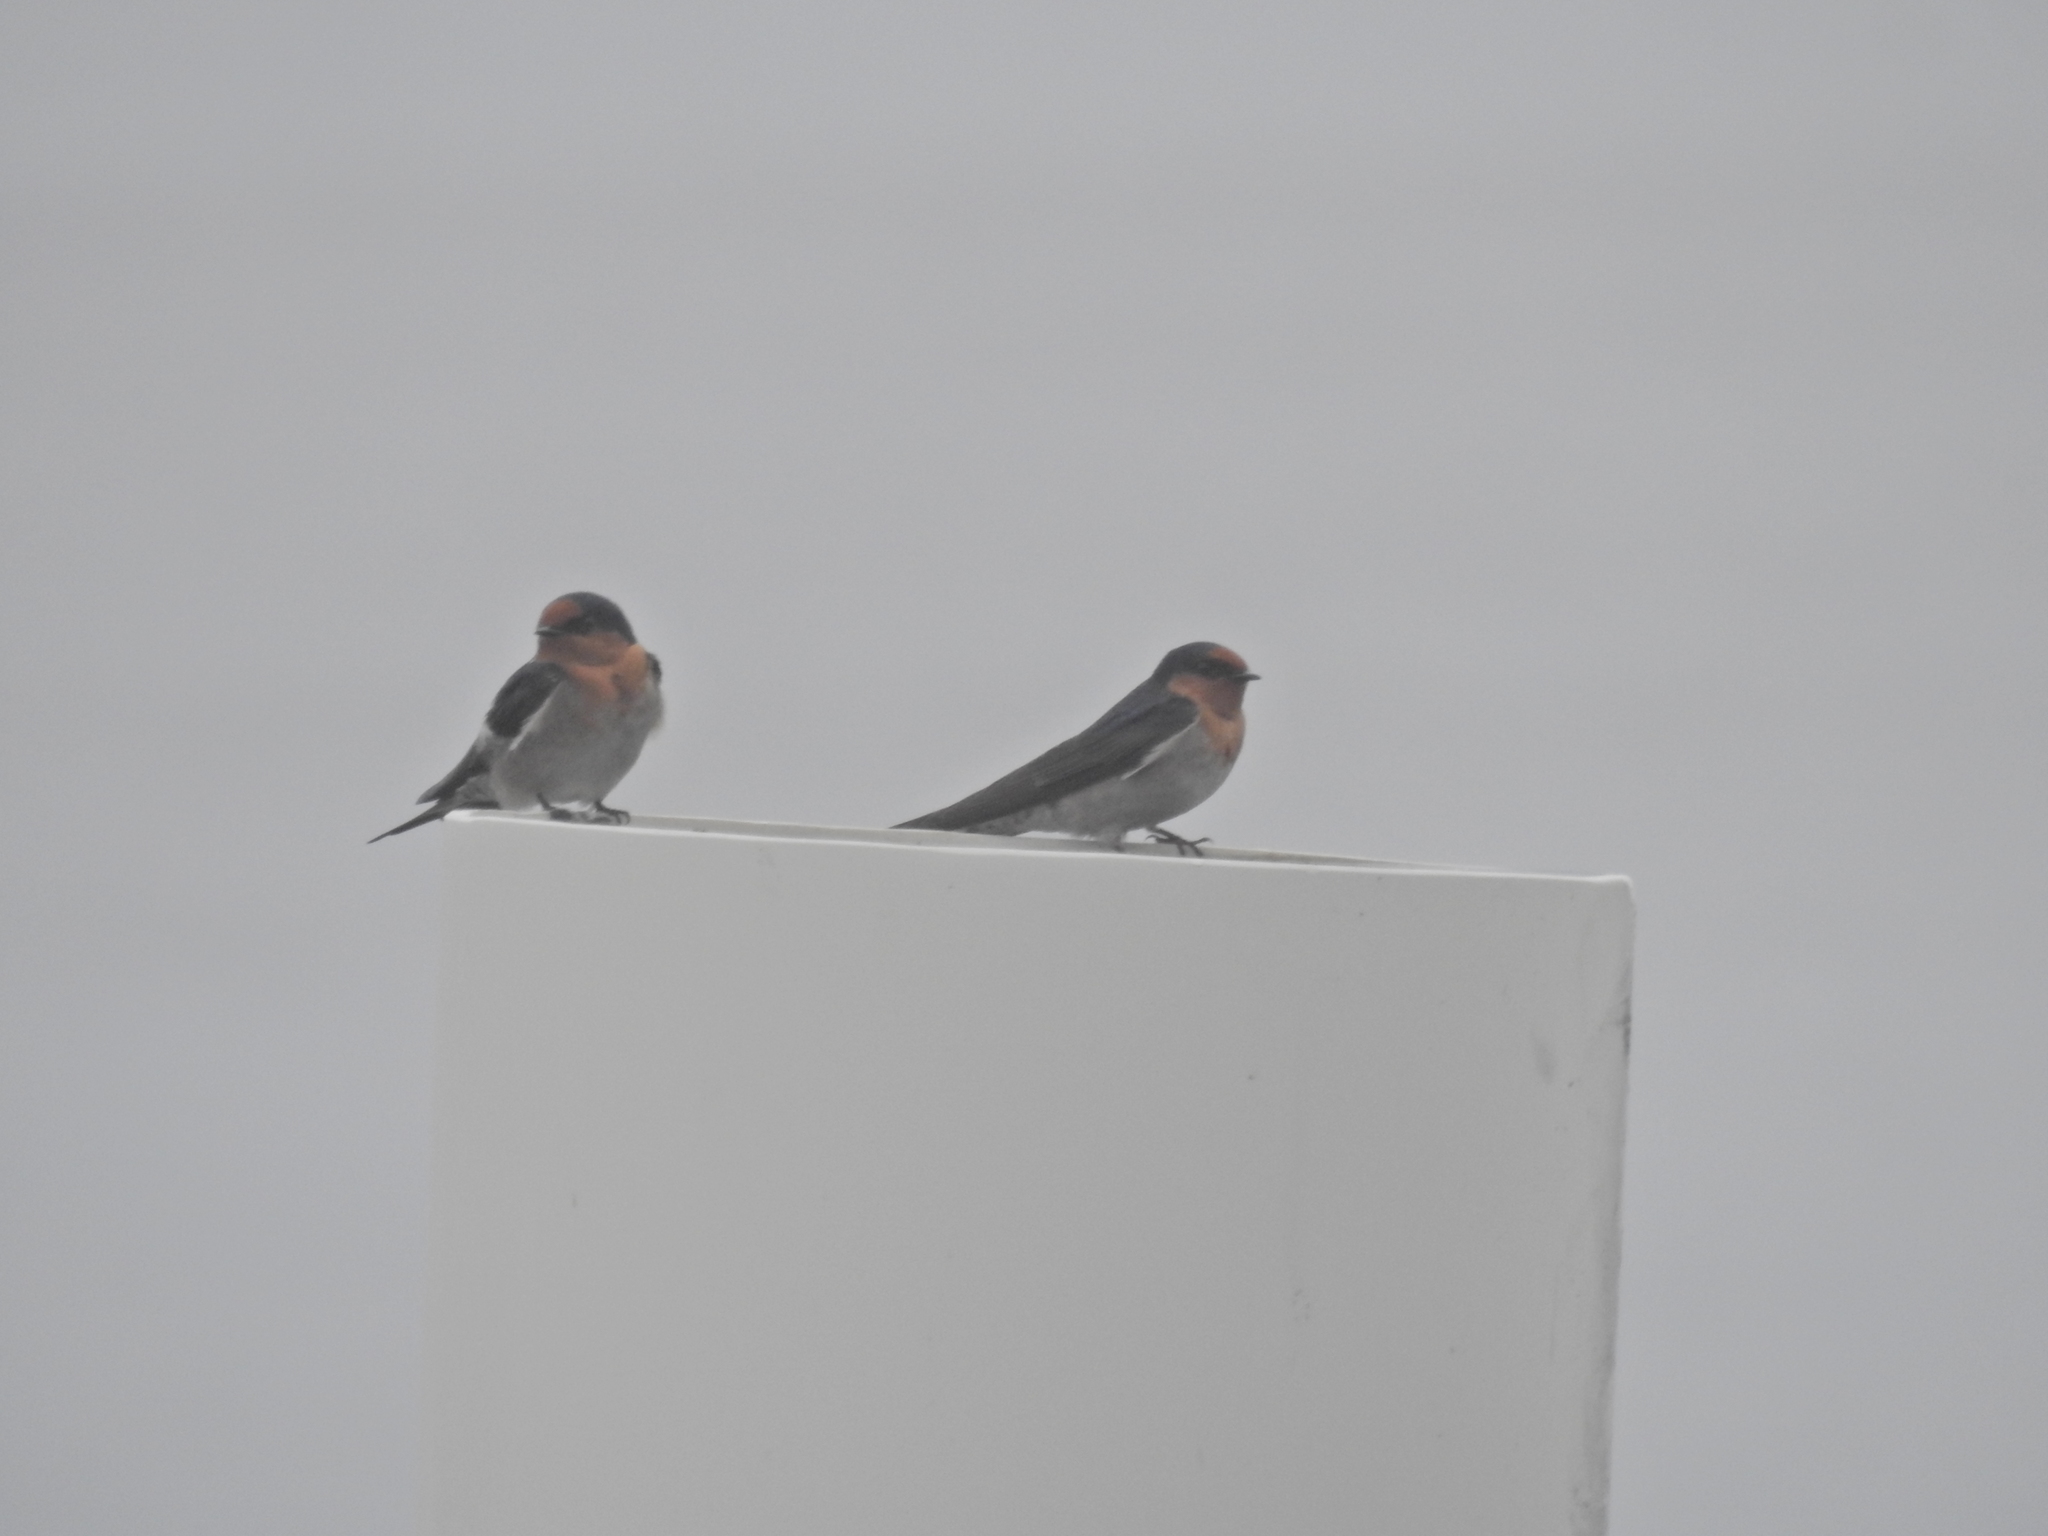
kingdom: Animalia
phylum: Chordata
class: Aves
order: Passeriformes
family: Hirundinidae
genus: Hirundo
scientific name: Hirundo neoxena
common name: Welcome swallow
